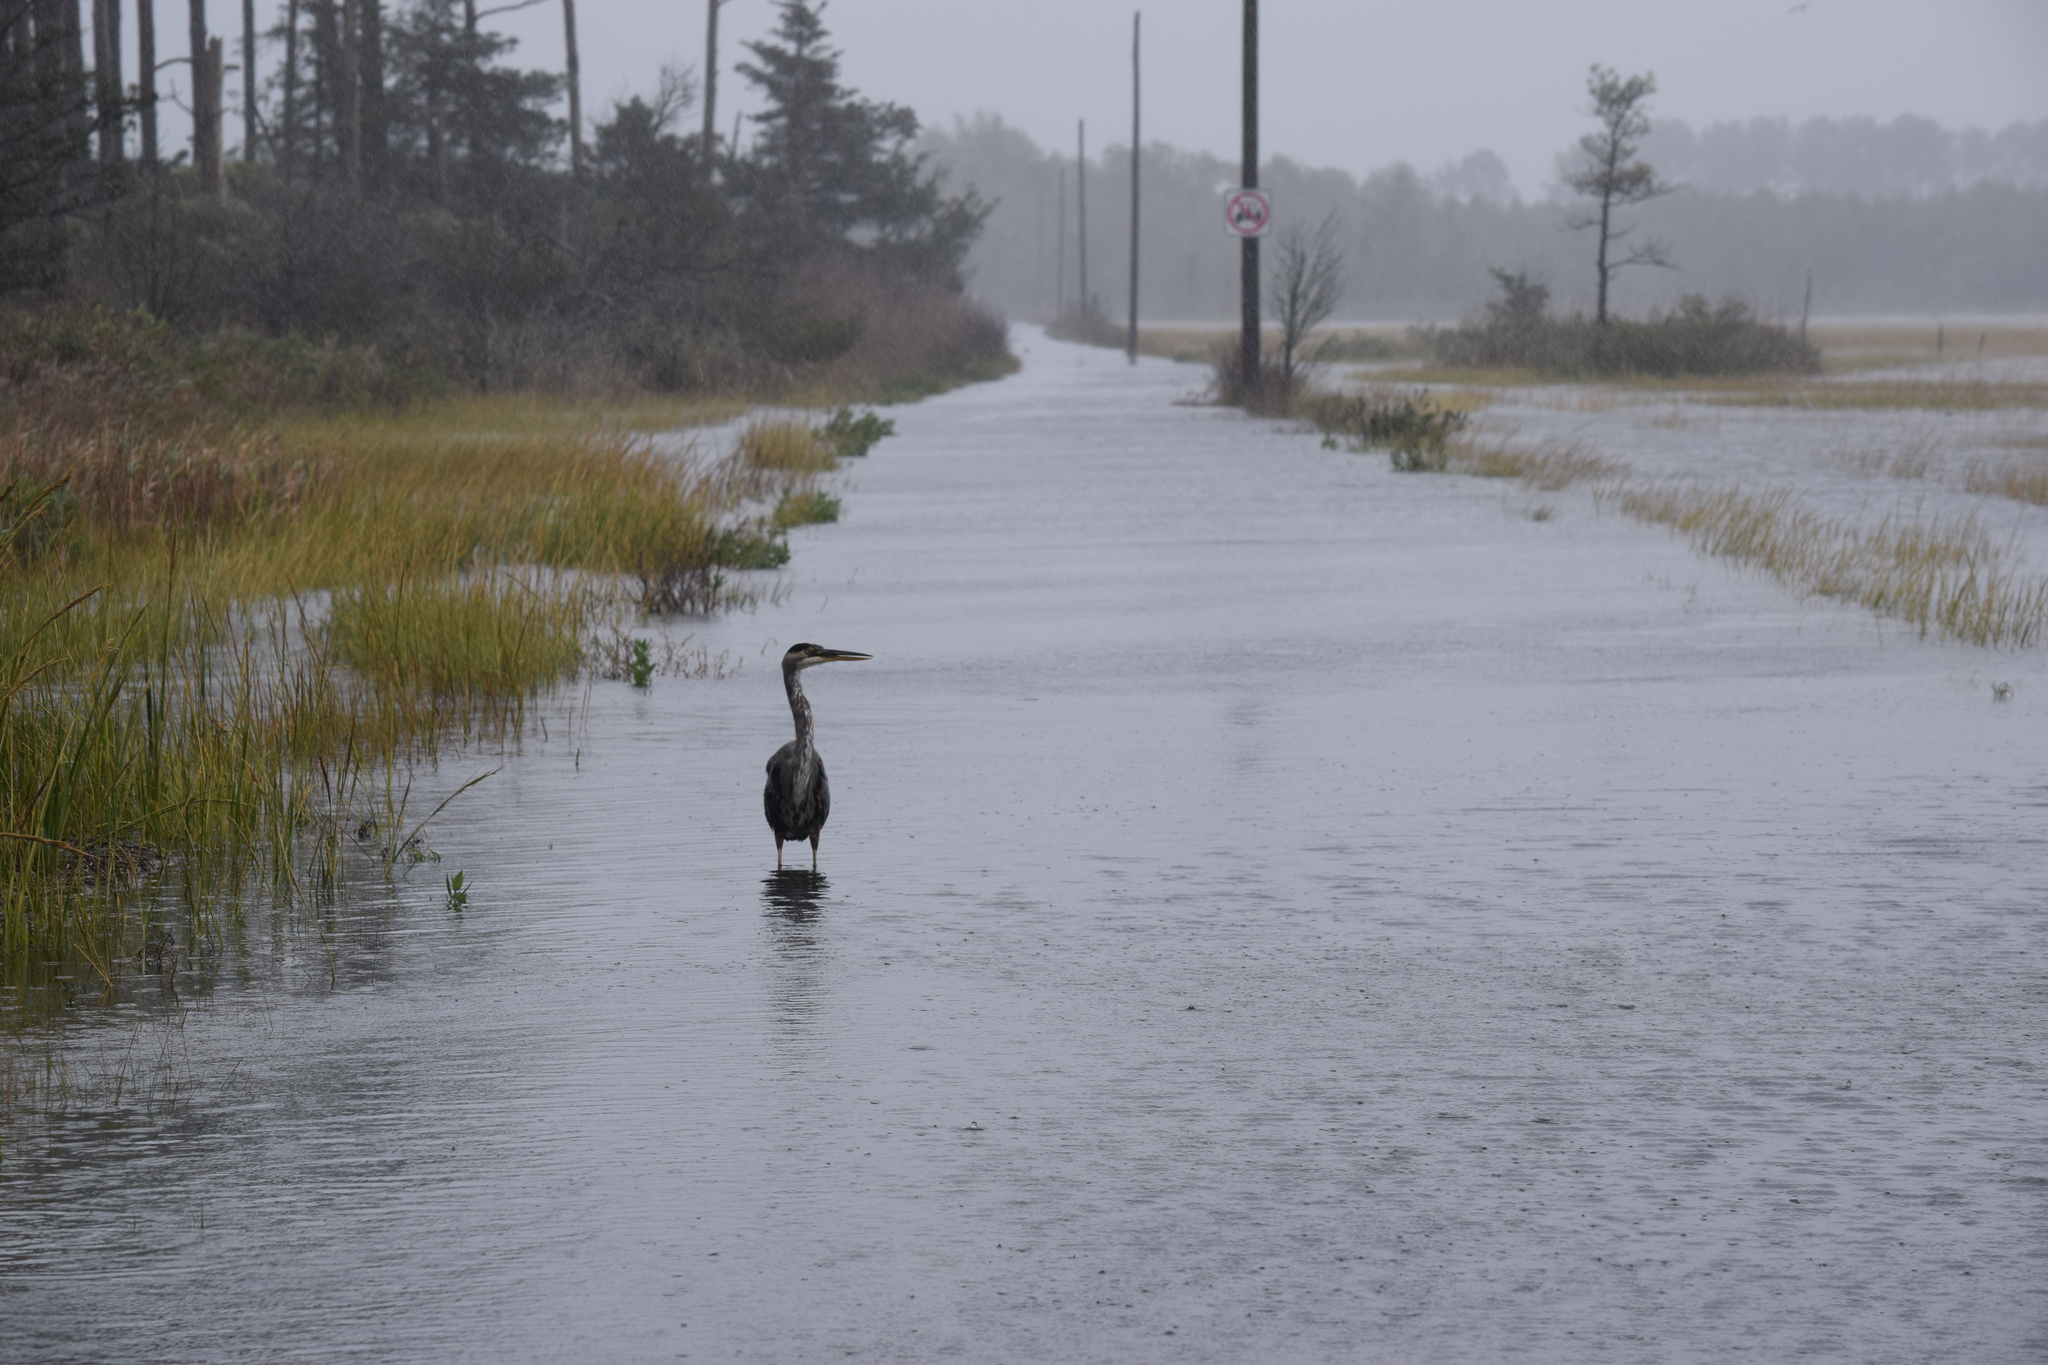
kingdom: Animalia
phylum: Chordata
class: Aves
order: Pelecaniformes
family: Ardeidae
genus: Ardea
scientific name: Ardea herodias
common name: Great blue heron
